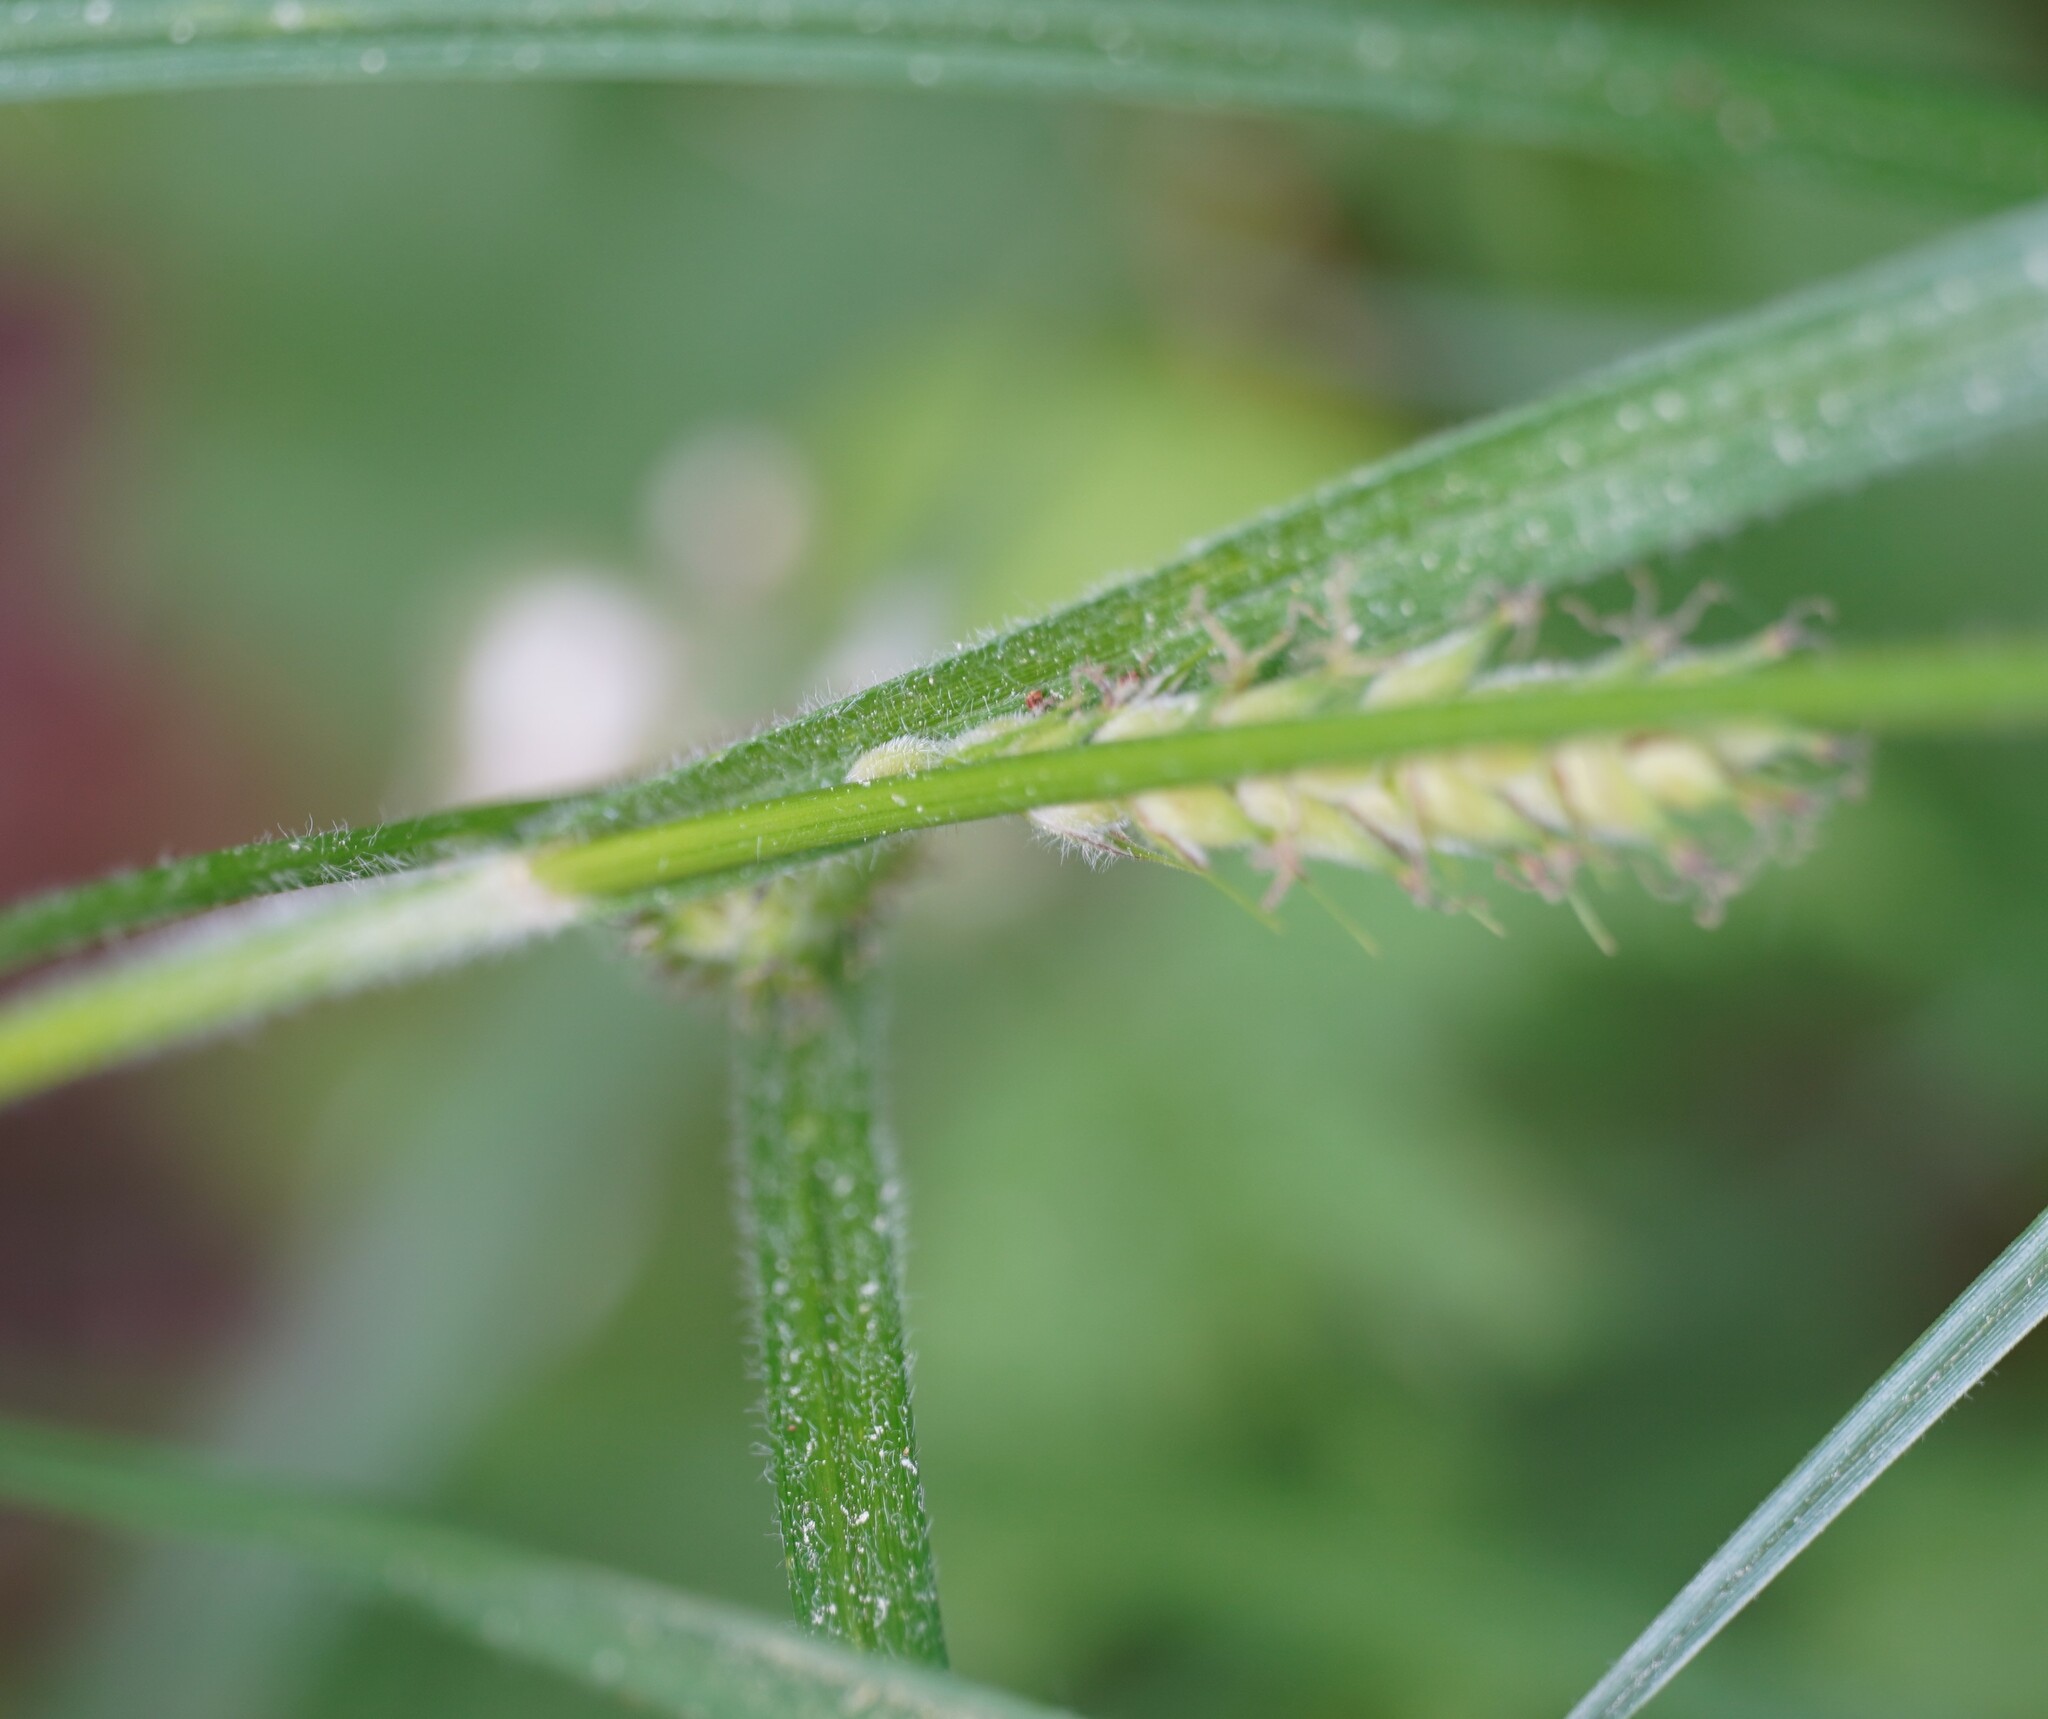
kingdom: Plantae
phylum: Tracheophyta
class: Liliopsida
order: Poales
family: Cyperaceae
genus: Carex
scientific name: Carex hirta
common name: Hairy sedge
